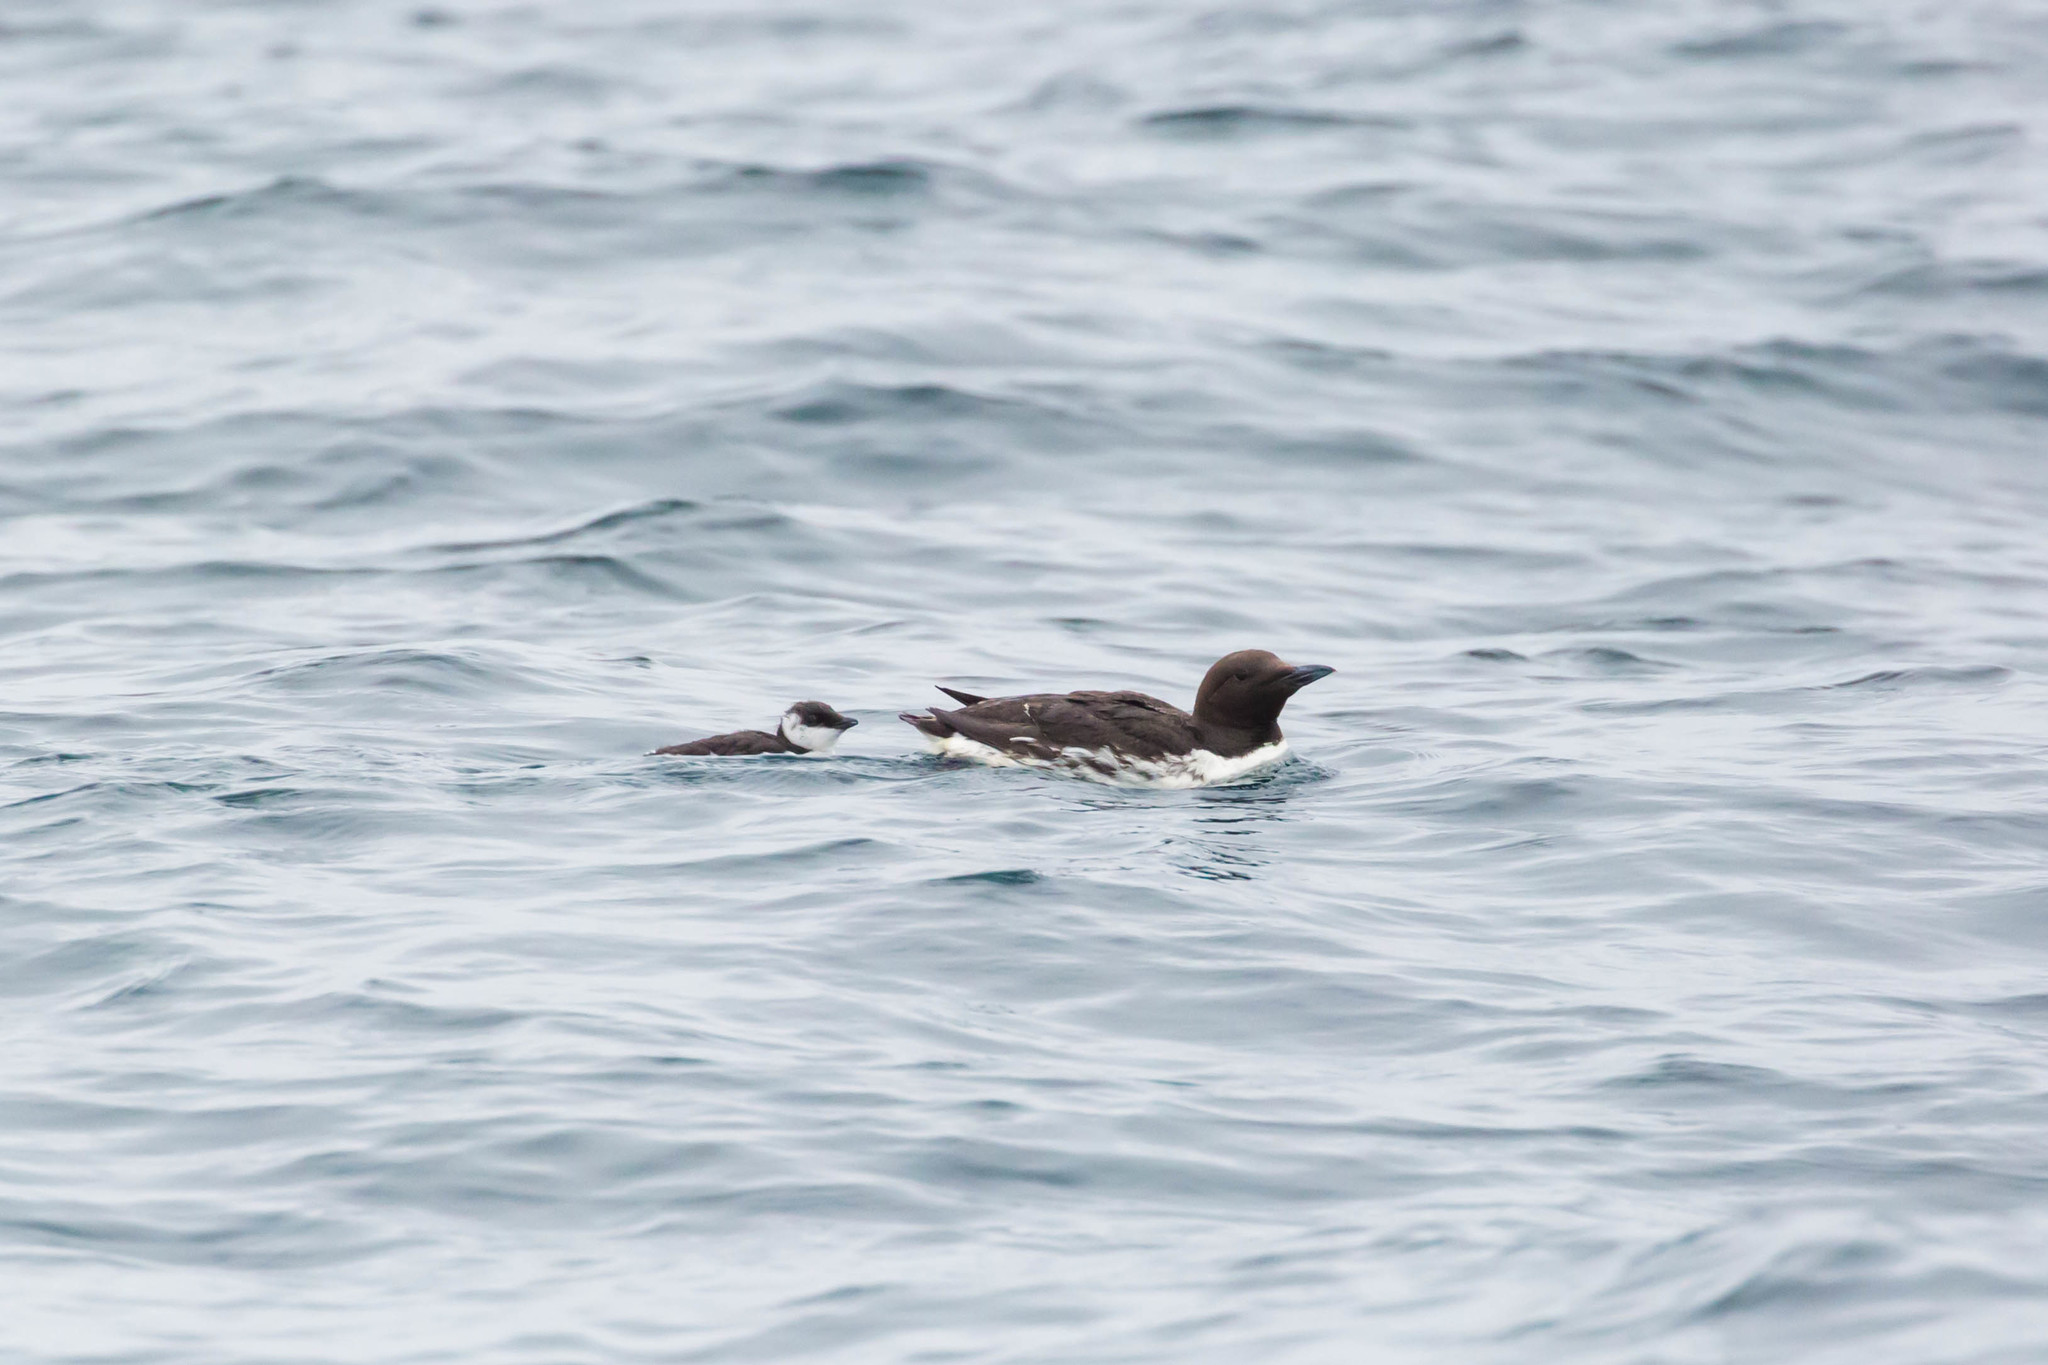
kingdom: Animalia
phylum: Chordata
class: Aves
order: Charadriiformes
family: Alcidae
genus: Uria
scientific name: Uria aalge
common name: Common murre
